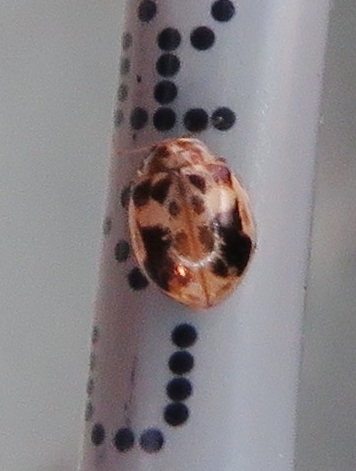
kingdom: Animalia
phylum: Arthropoda
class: Insecta
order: Coleoptera
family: Coccinellidae
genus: Psyllobora
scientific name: Psyllobora renifer
